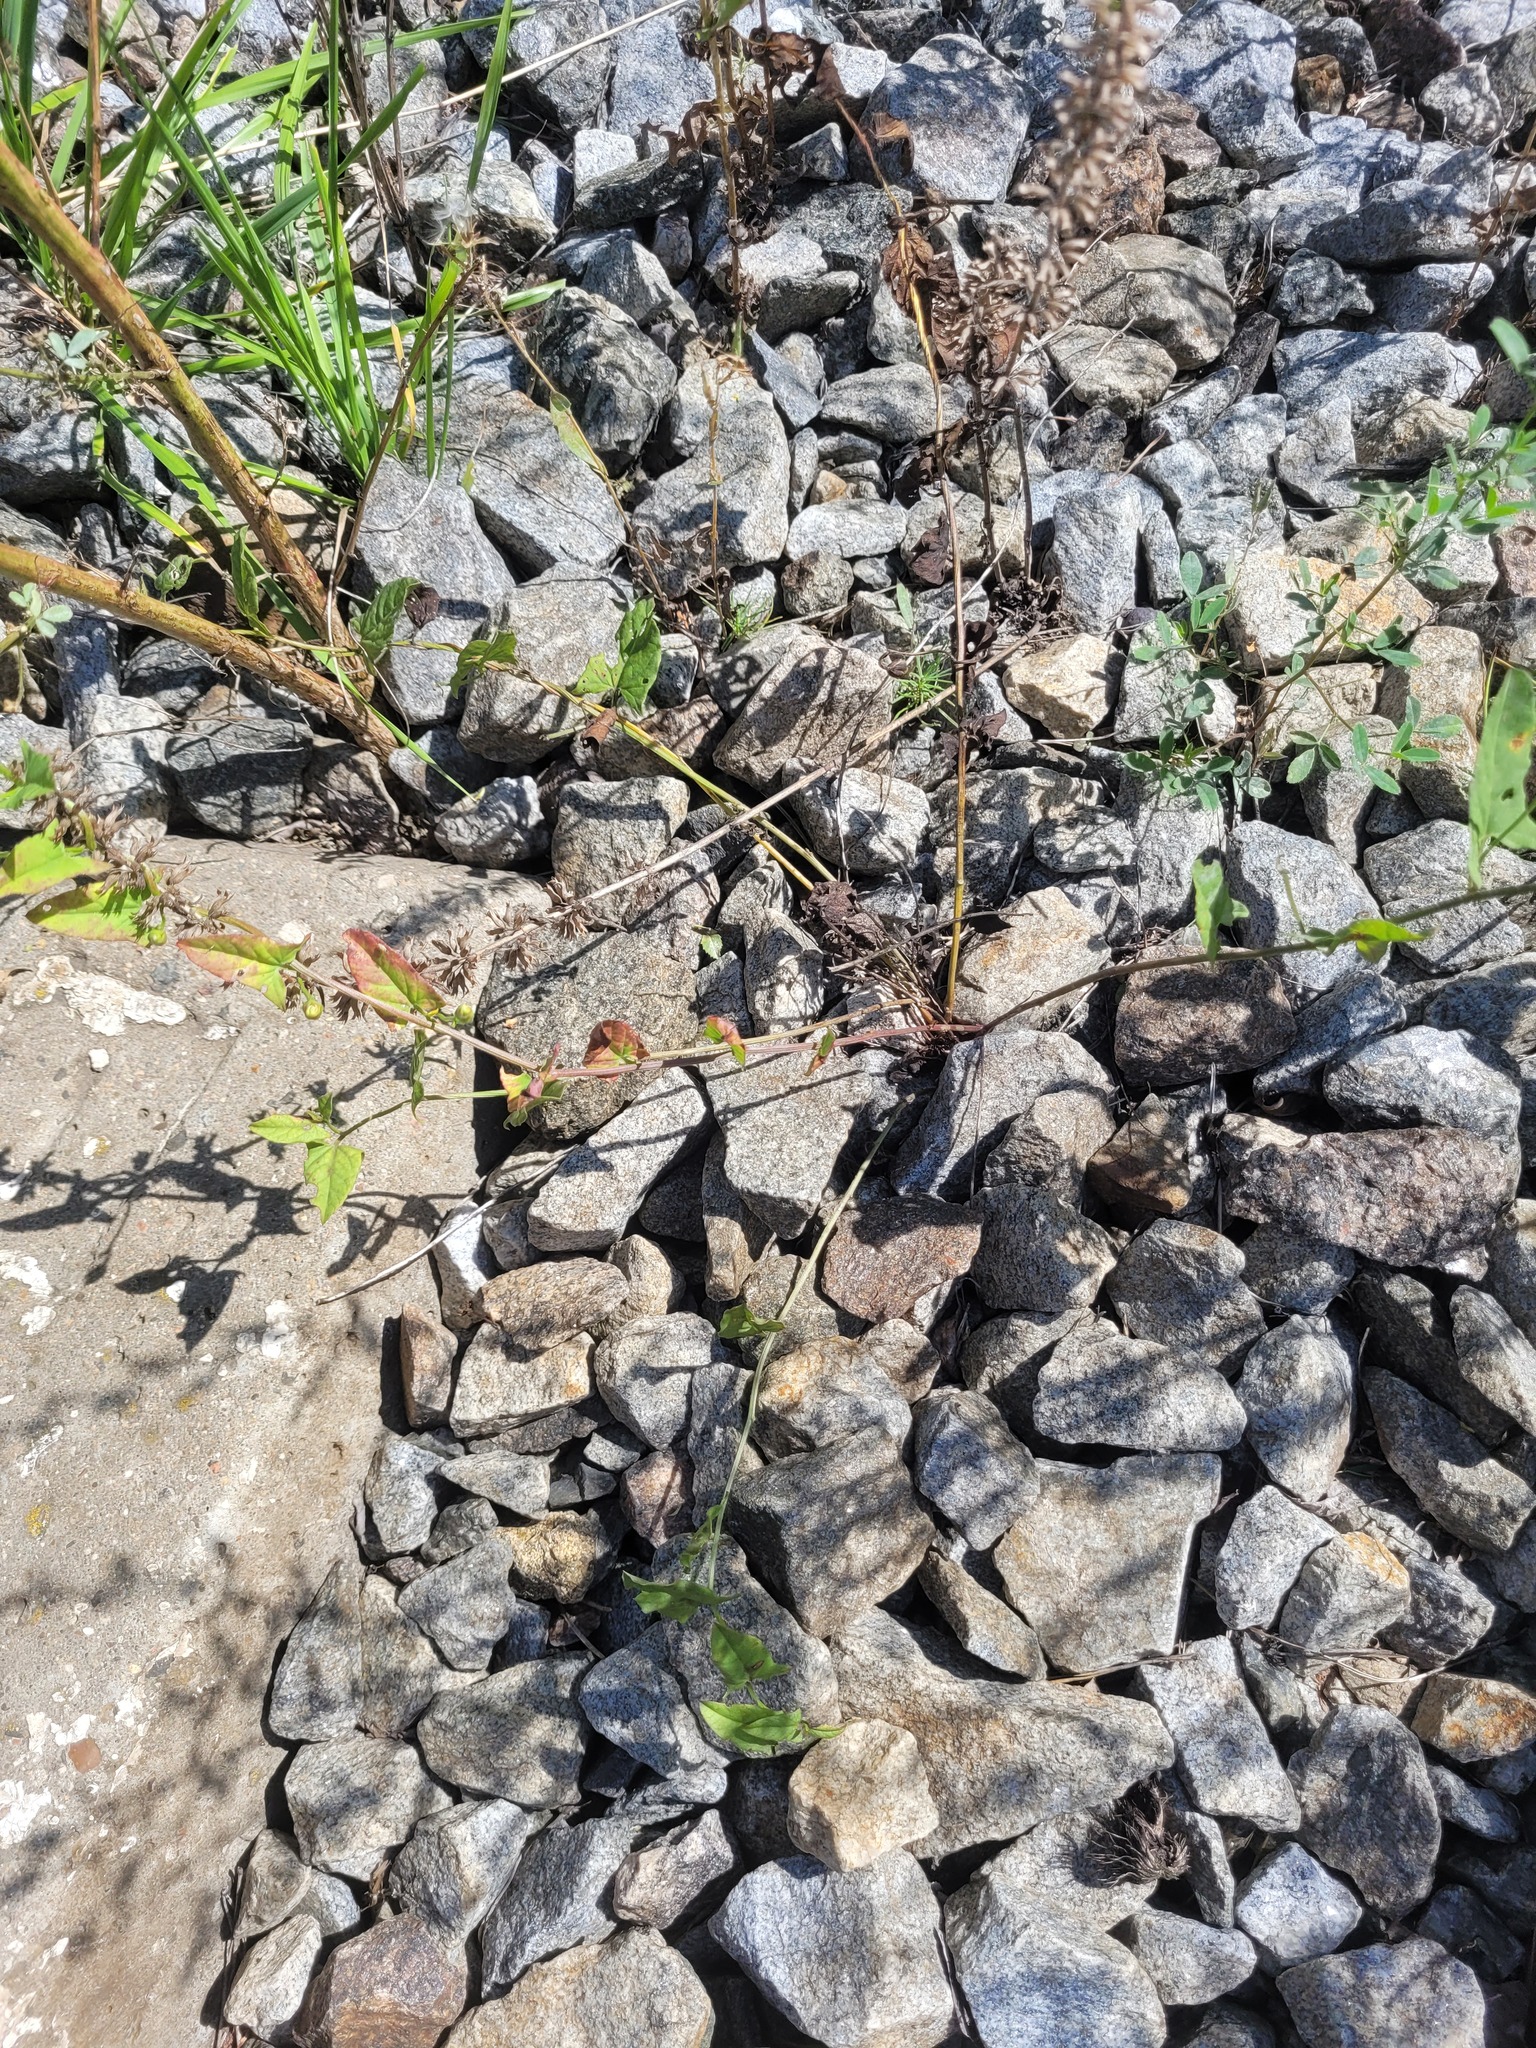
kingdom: Plantae
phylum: Tracheophyta
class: Magnoliopsida
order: Solanales
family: Convolvulaceae
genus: Convolvulus
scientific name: Convolvulus arvensis
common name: Field bindweed
